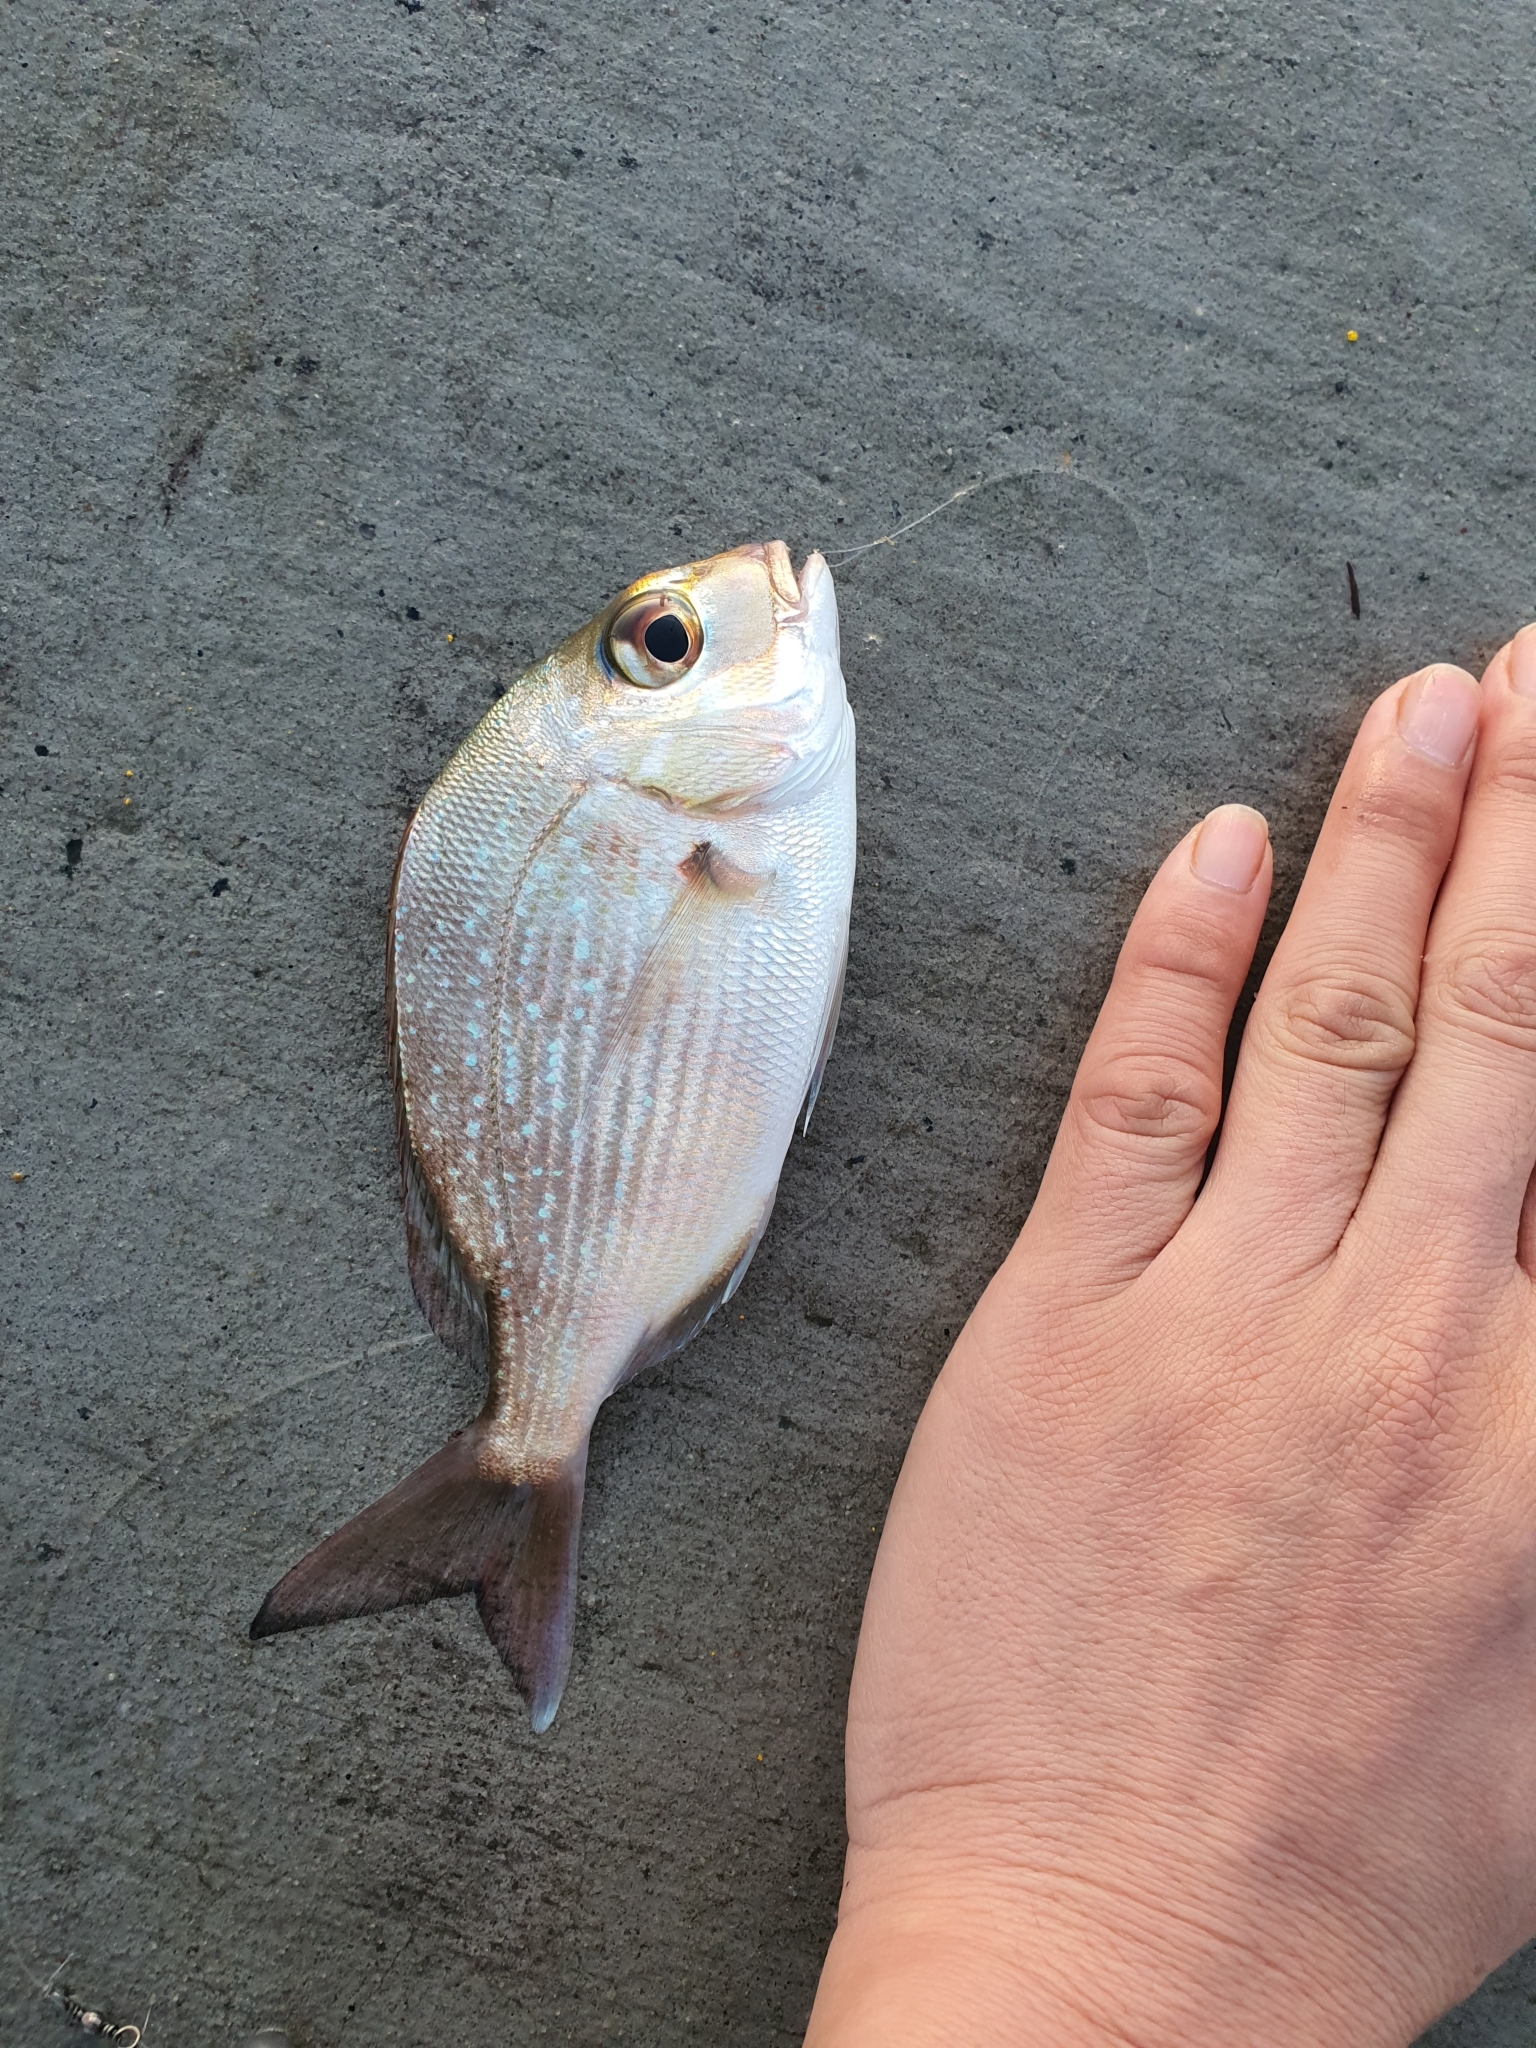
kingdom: Animalia
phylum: Chordata
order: Perciformes
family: Sparidae
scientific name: Sparidae
